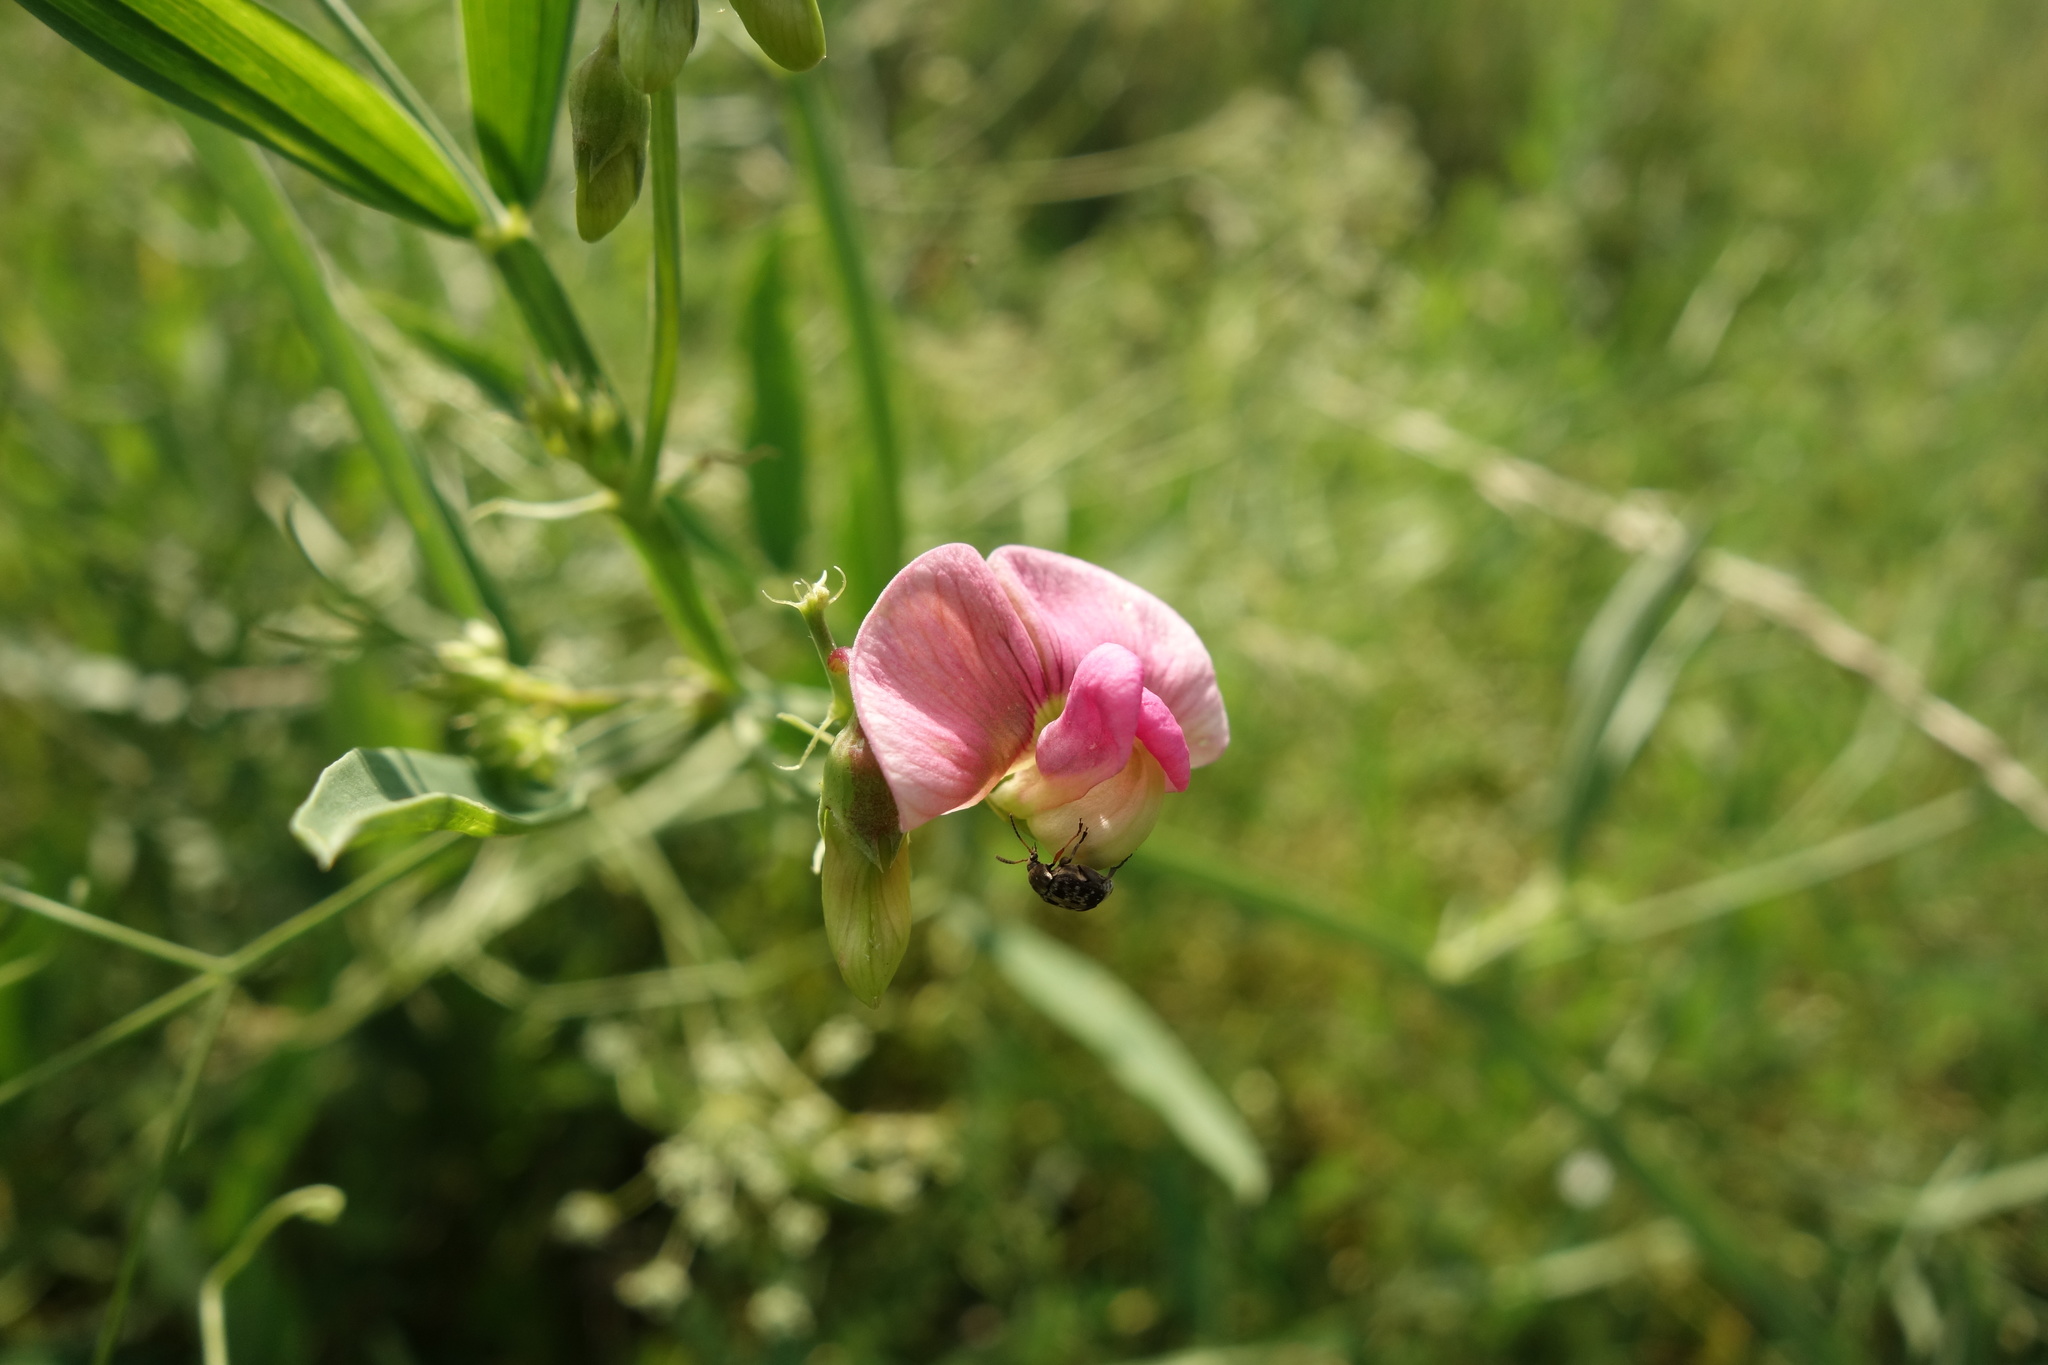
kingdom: Plantae
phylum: Tracheophyta
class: Magnoliopsida
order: Fabales
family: Fabaceae
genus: Lathyrus
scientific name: Lathyrus sylvestris
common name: Flat pea
